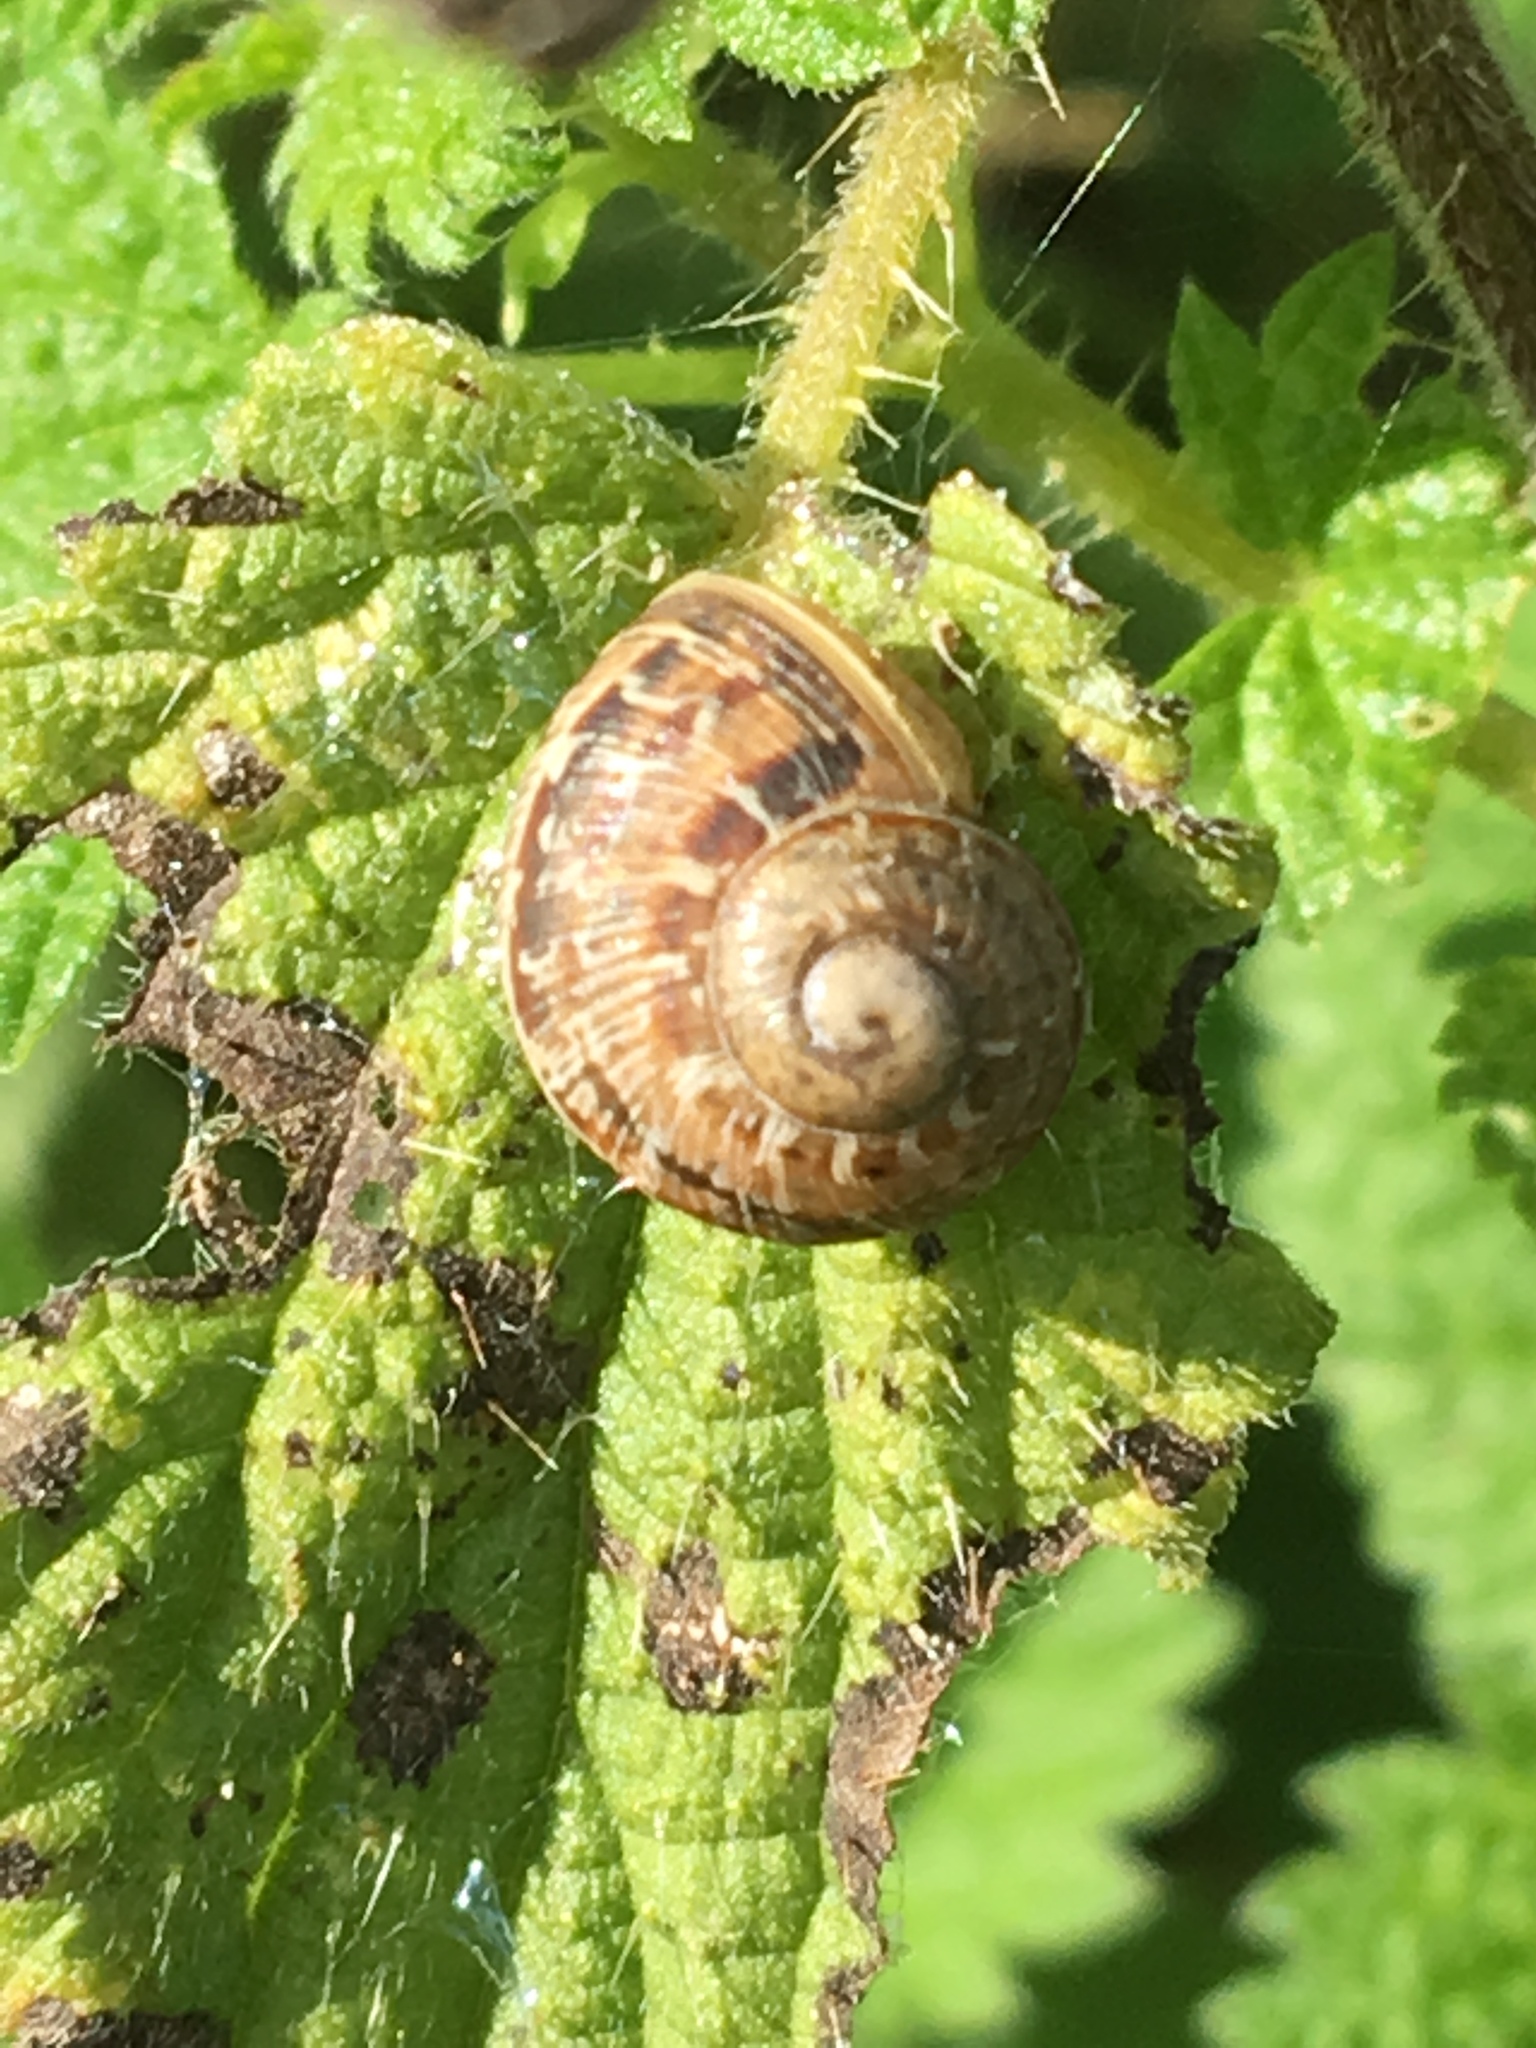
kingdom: Animalia
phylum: Mollusca
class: Gastropoda
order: Stylommatophora
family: Helicidae
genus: Cornu
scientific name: Cornu aspersum
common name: Brown garden snail
